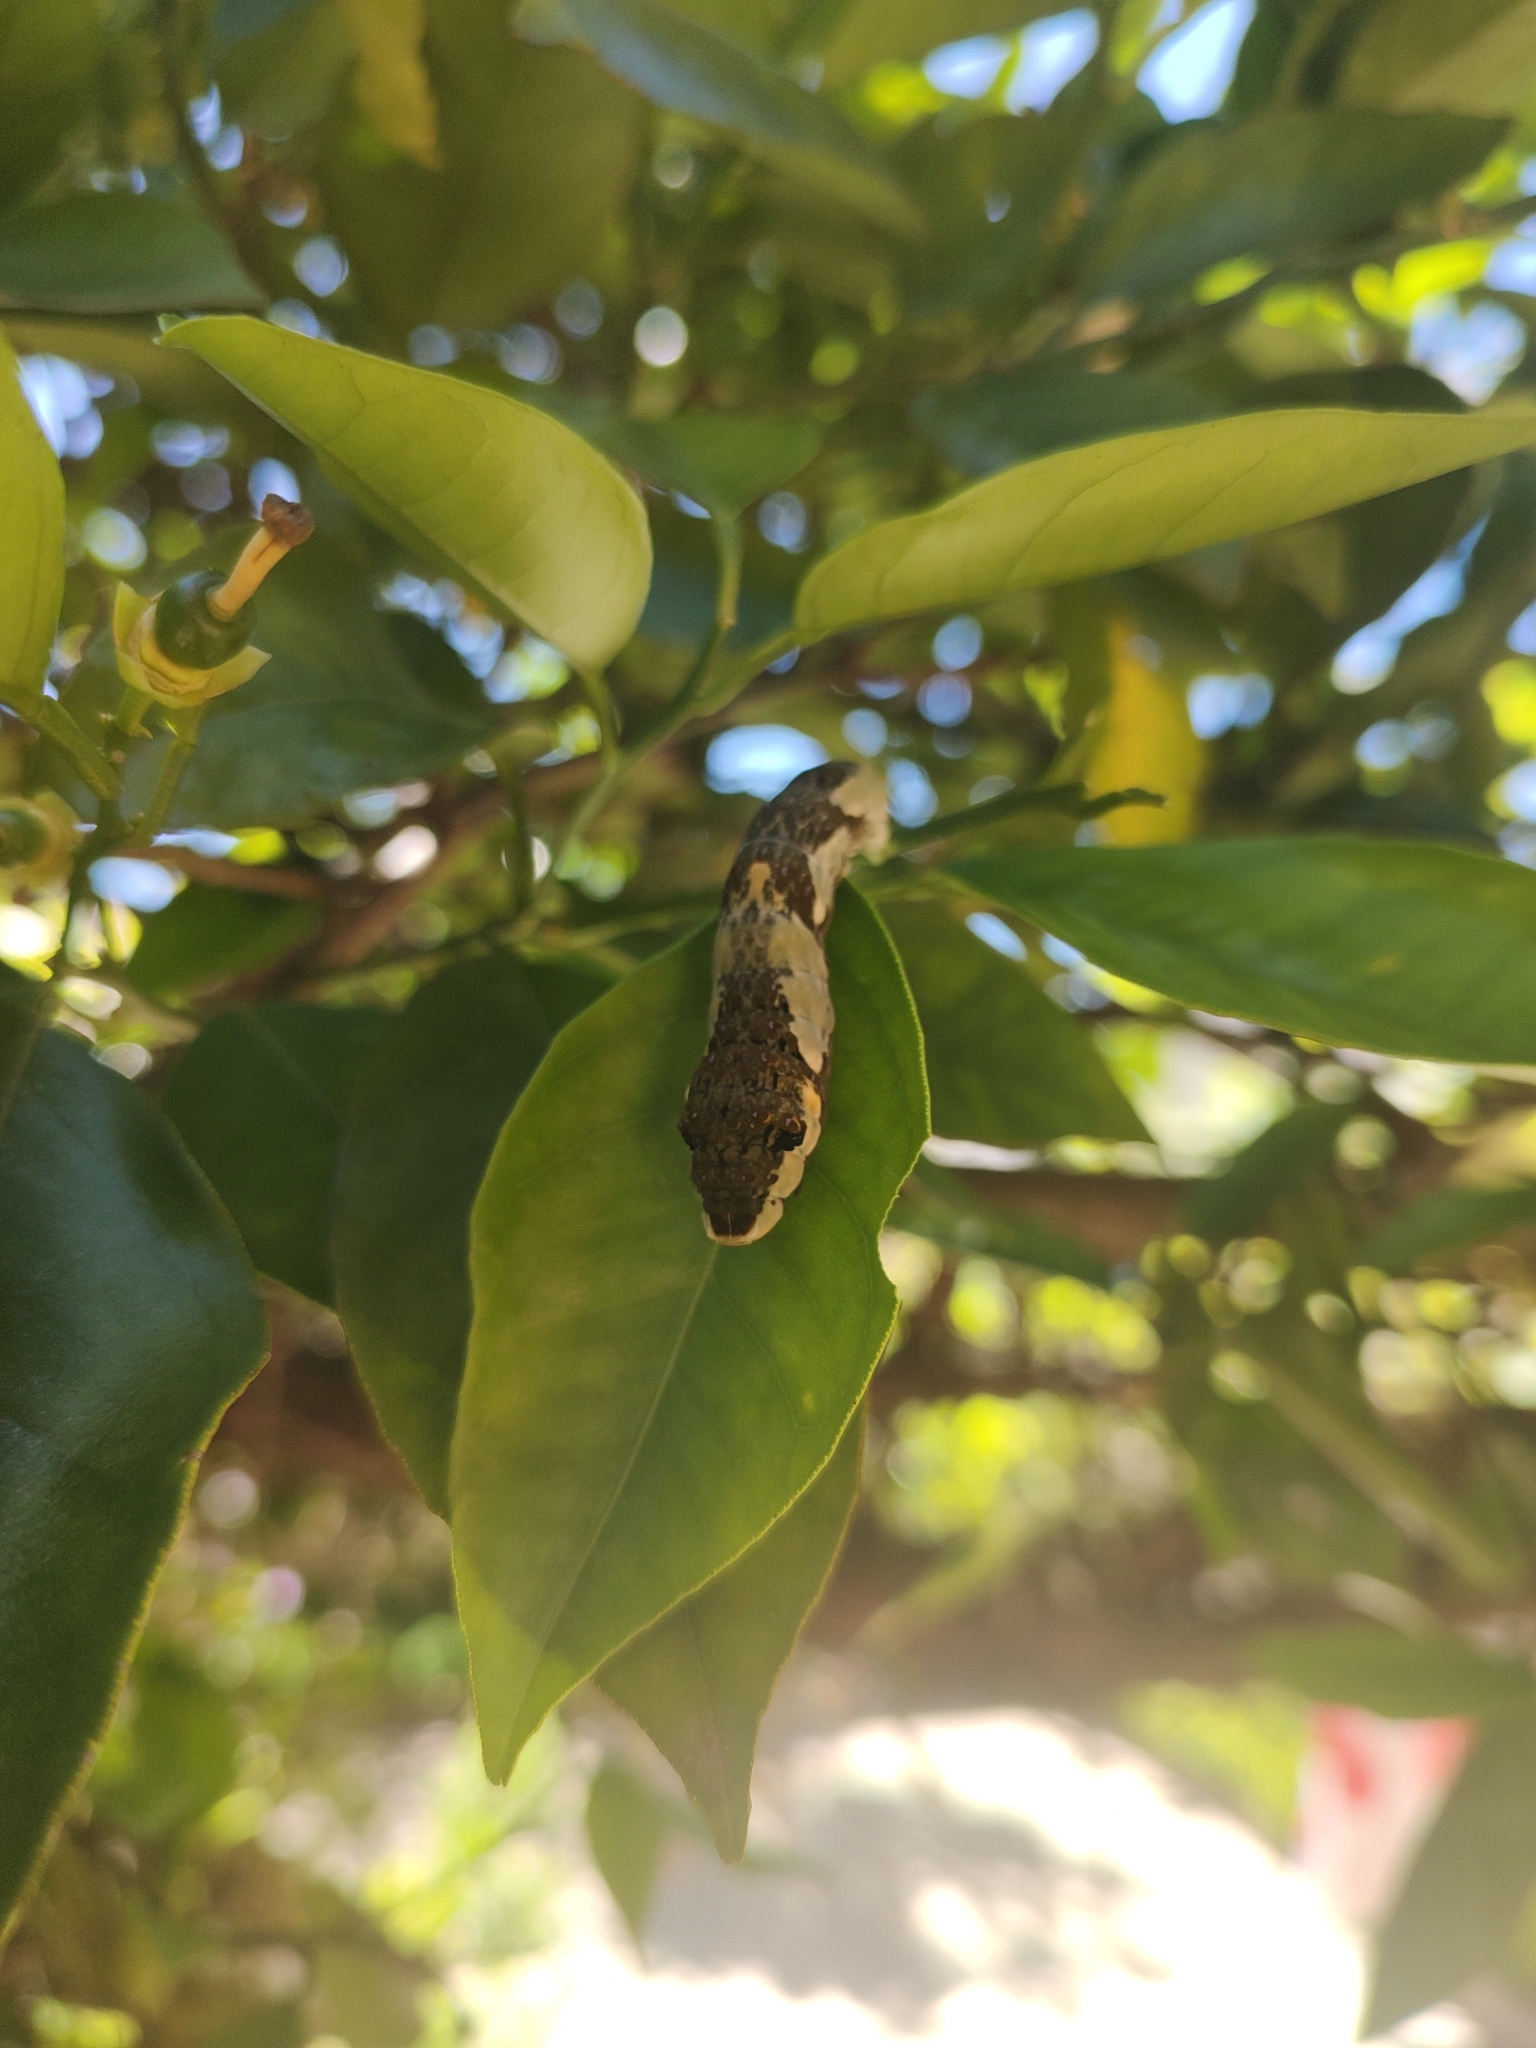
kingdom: Animalia
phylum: Arthropoda
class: Insecta
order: Lepidoptera
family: Papilionidae
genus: Papilio
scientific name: Papilio astyalus
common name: Astyalus swallowtail
